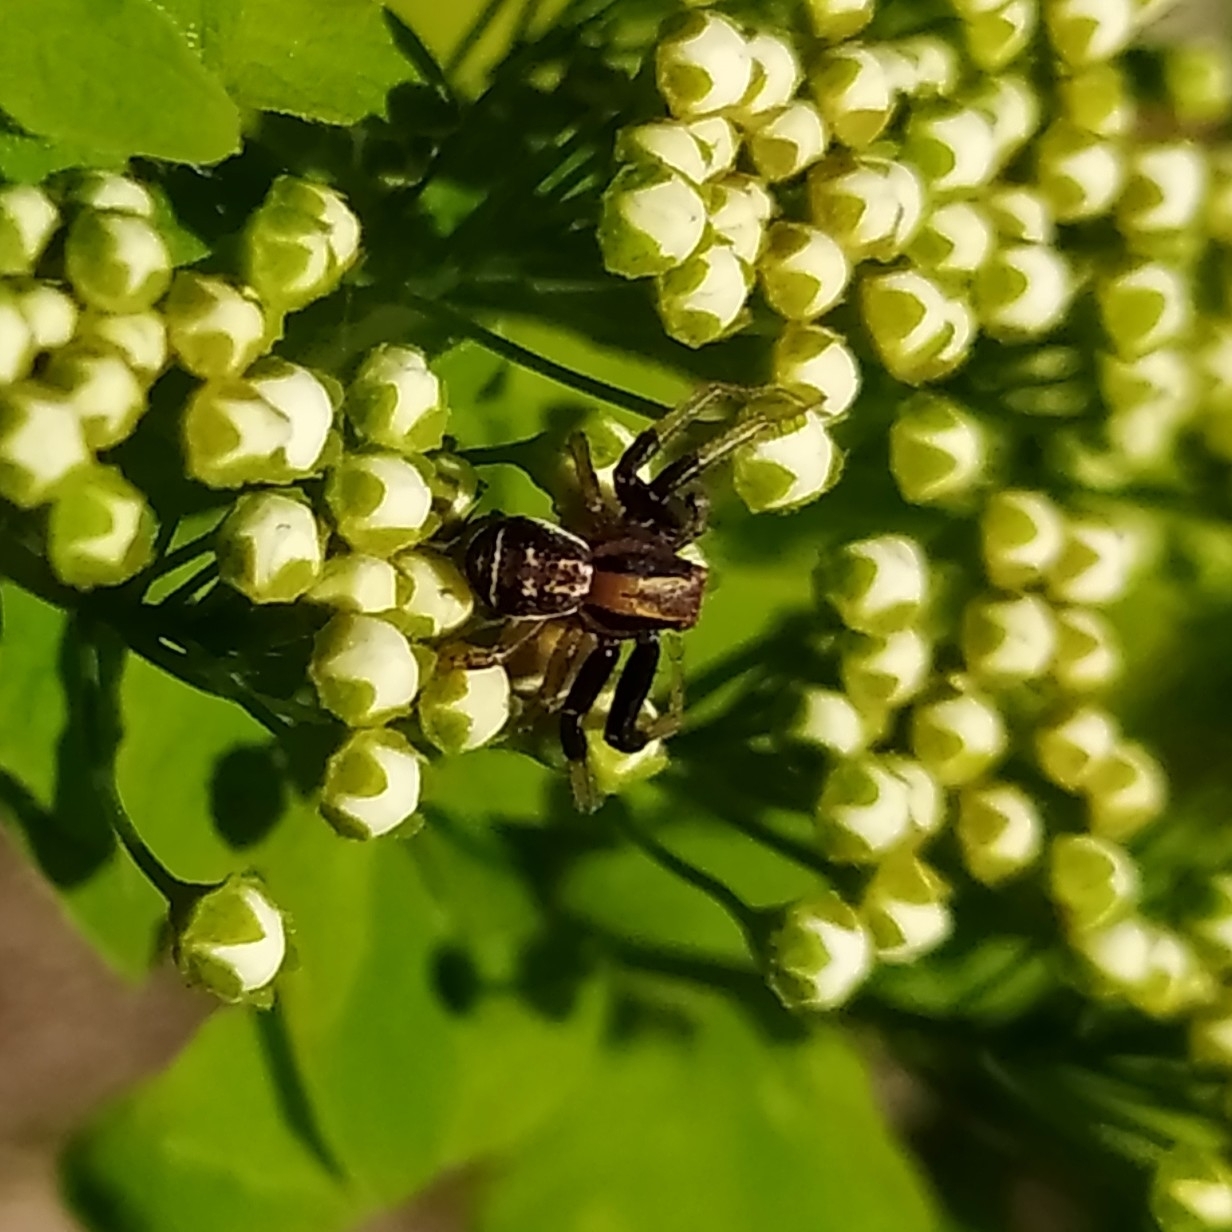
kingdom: Animalia
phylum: Arthropoda
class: Arachnida
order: Araneae
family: Thomisidae
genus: Xysticus
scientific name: Xysticus ulmi
